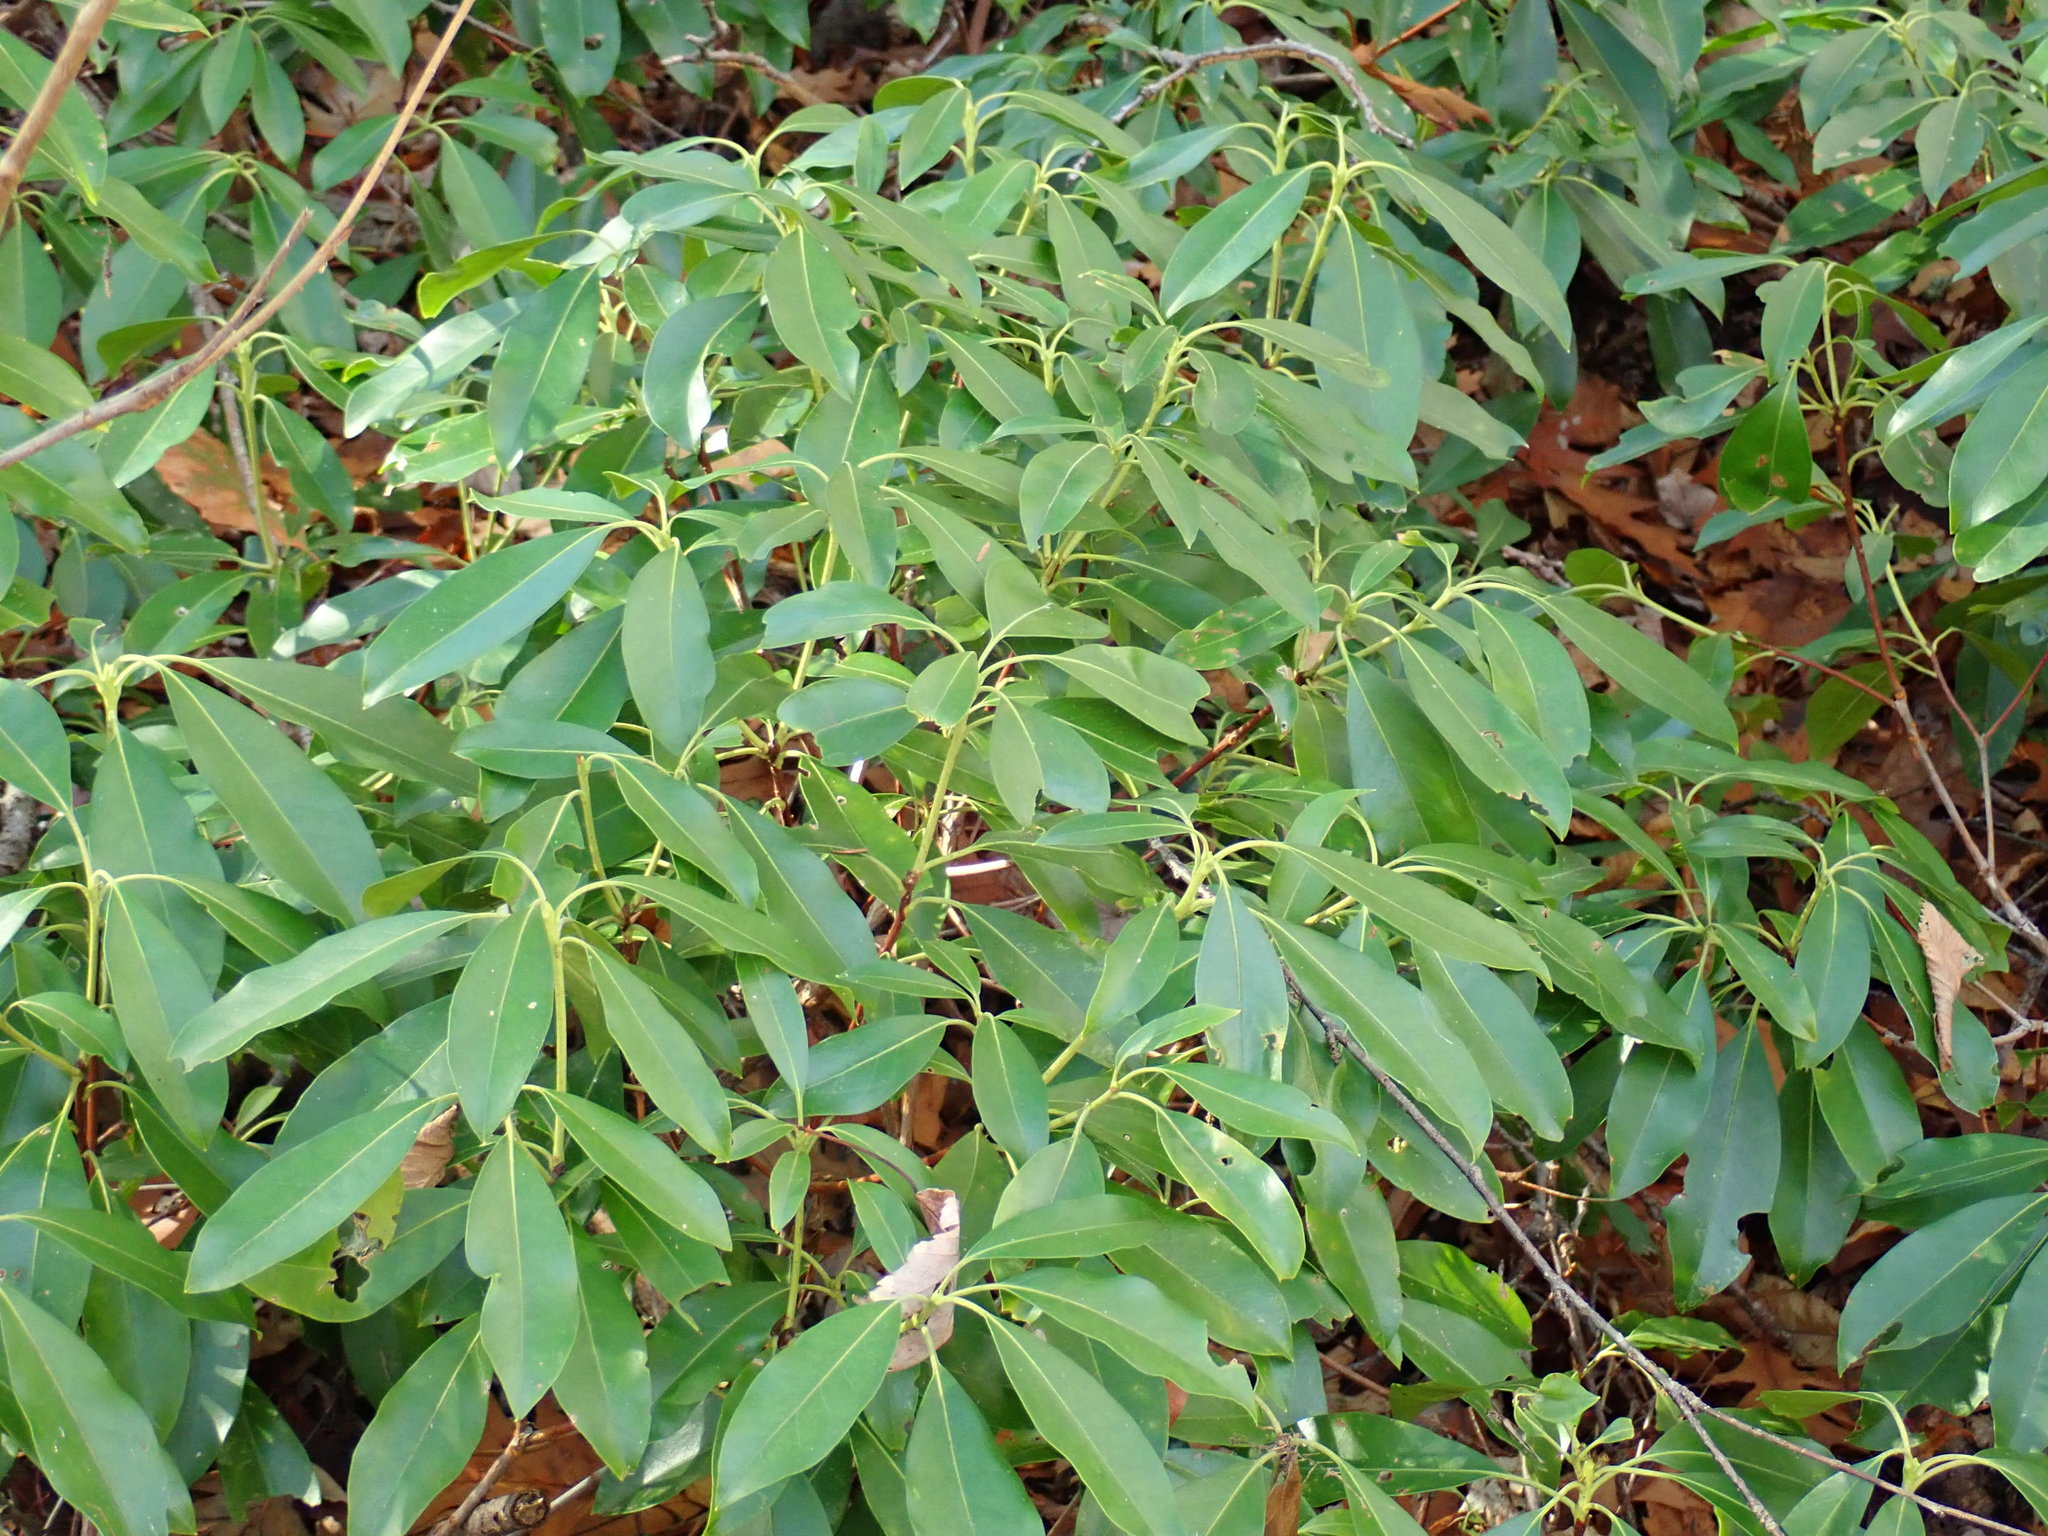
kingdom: Plantae
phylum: Tracheophyta
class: Magnoliopsida
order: Ericales
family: Ericaceae
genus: Kalmia
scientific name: Kalmia latifolia
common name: Mountain-laurel
